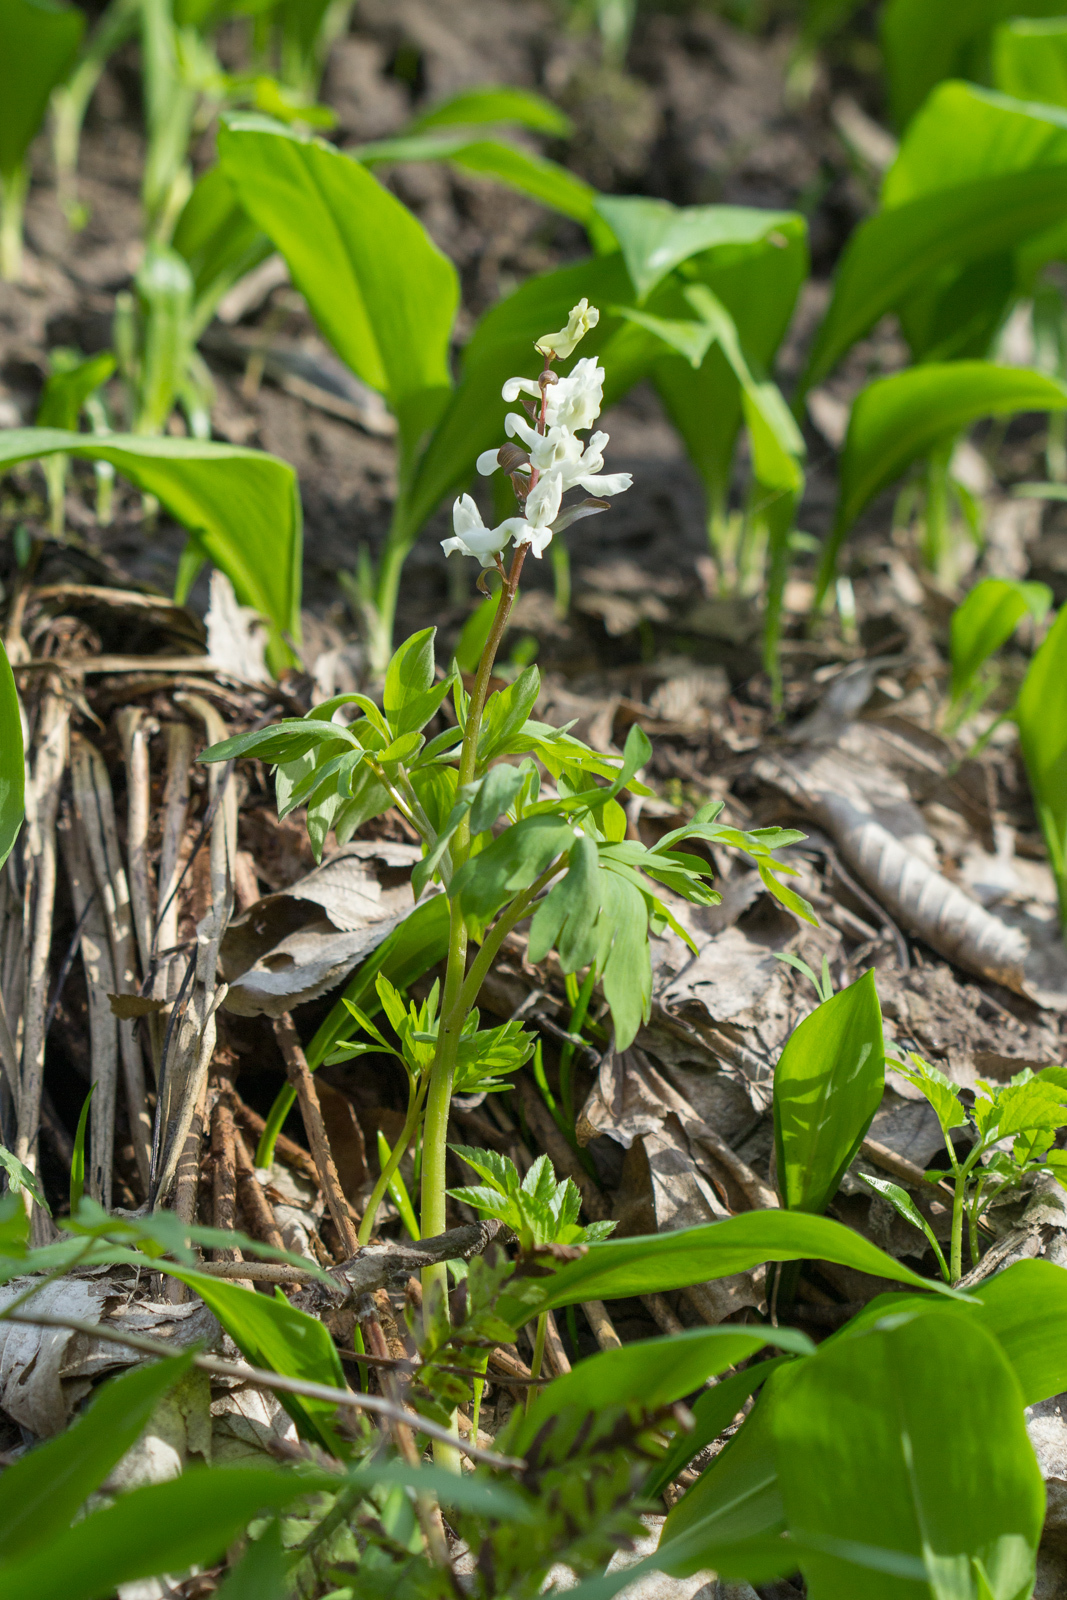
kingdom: Plantae
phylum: Tracheophyta
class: Magnoliopsida
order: Ranunculales
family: Papaveraceae
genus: Corydalis
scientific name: Corydalis cava
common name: Hollowroot
